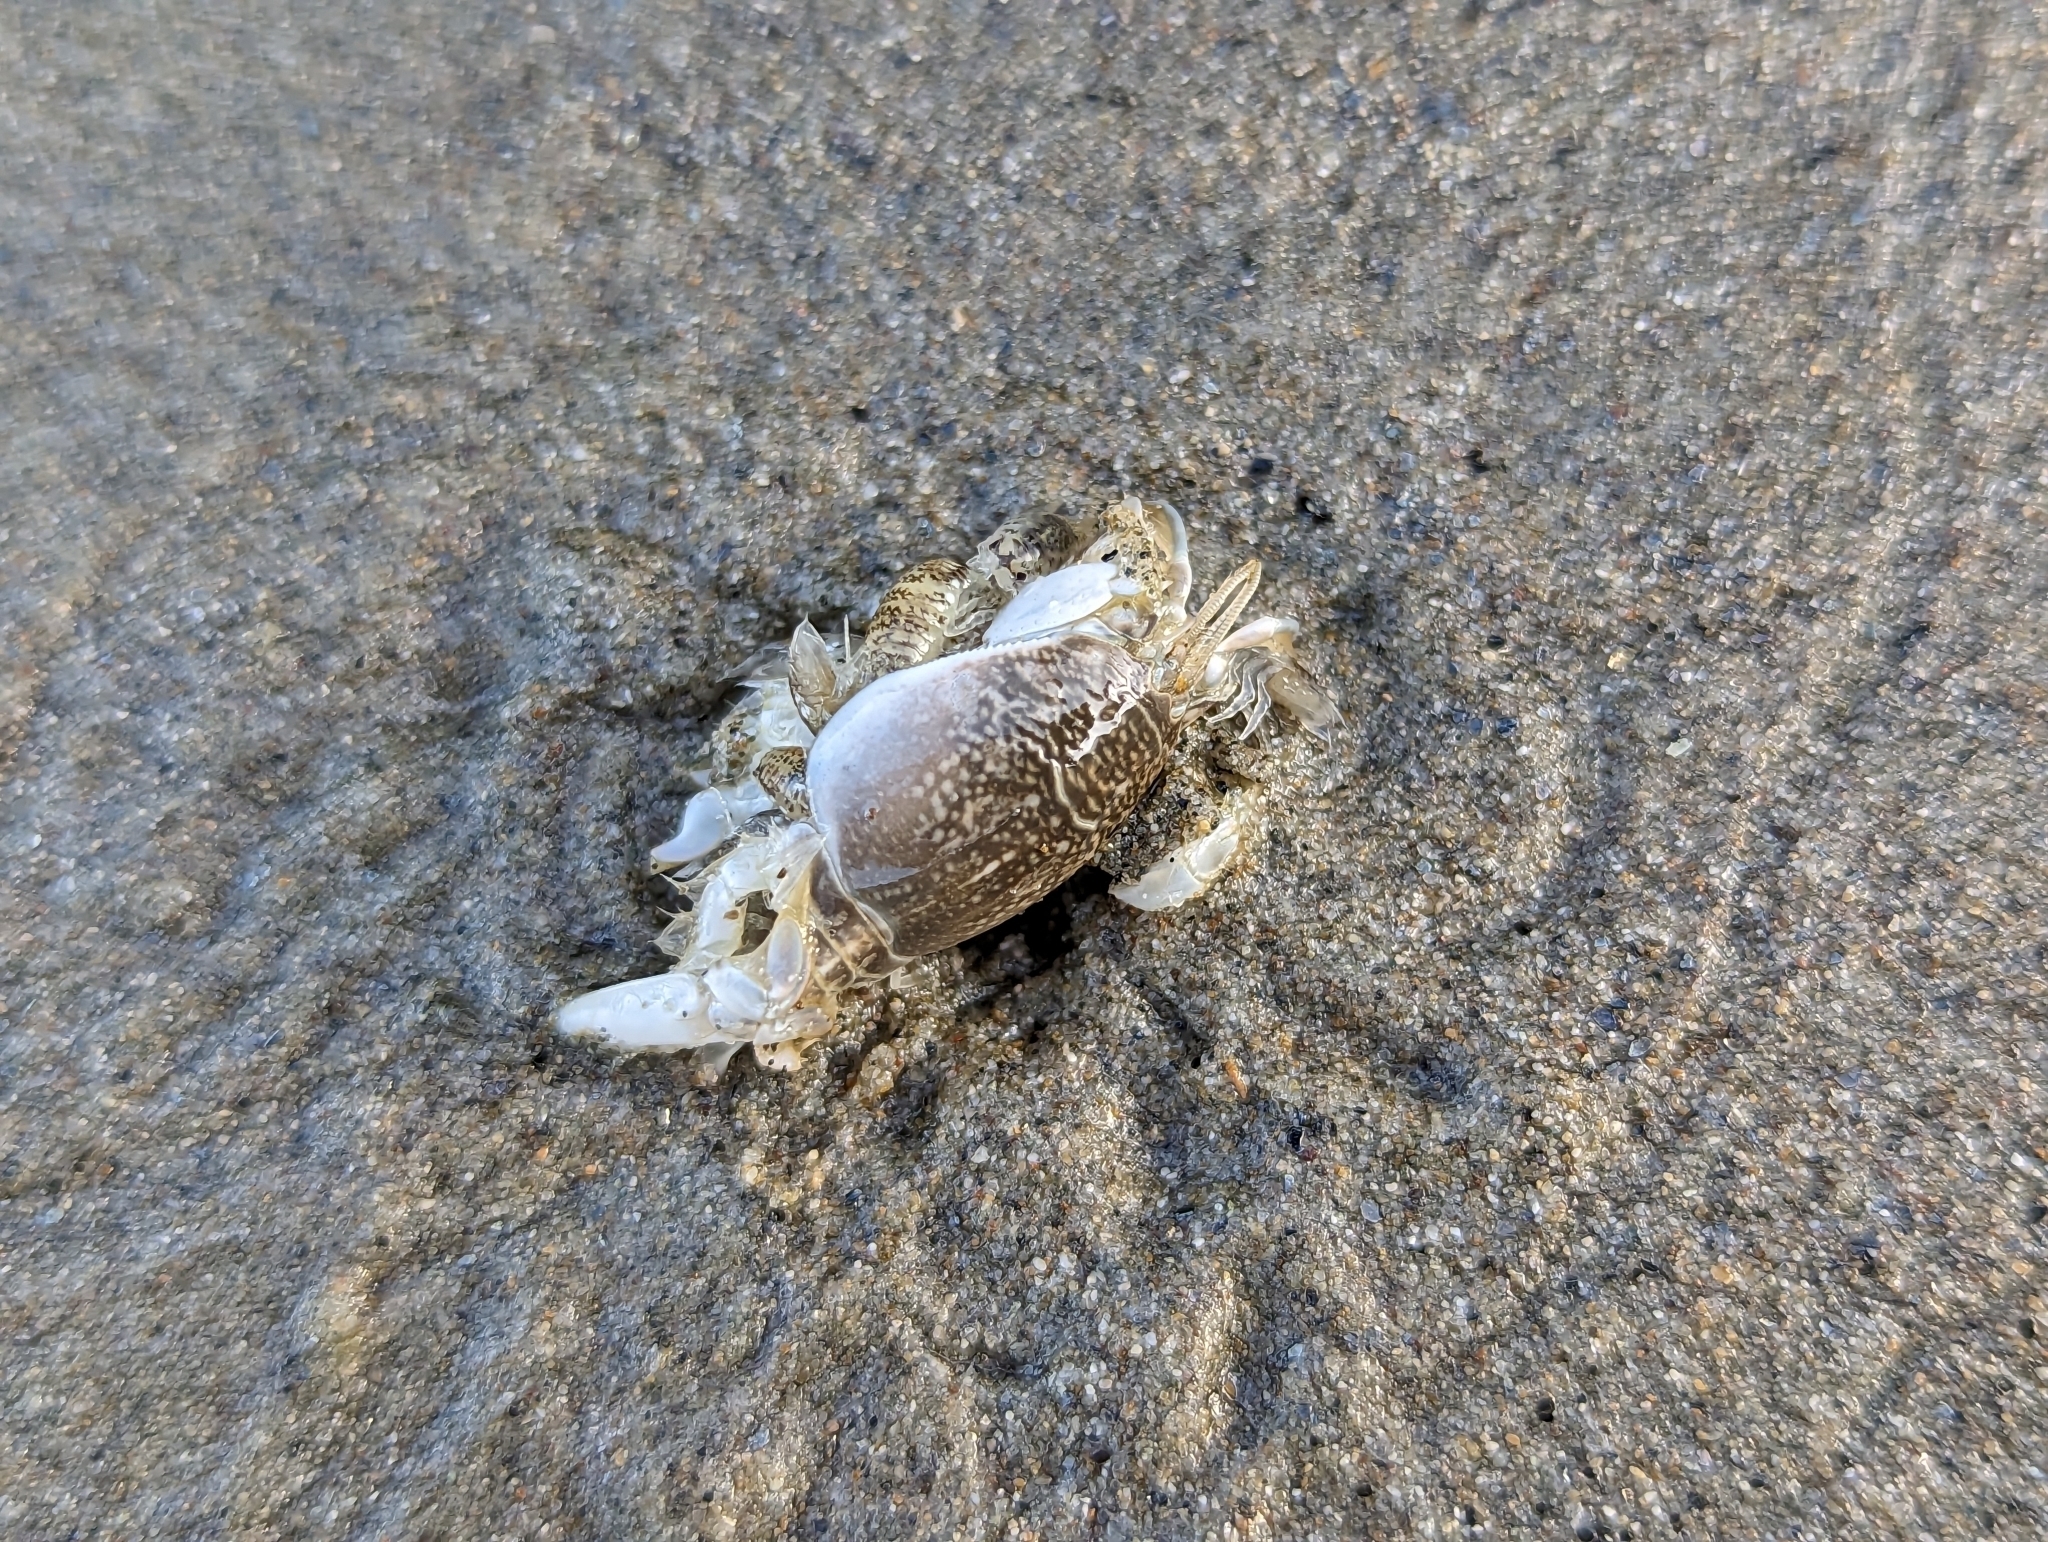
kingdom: Animalia
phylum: Arthropoda
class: Malacostraca
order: Decapoda
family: Hippidae
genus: Emerita
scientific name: Emerita analoga
